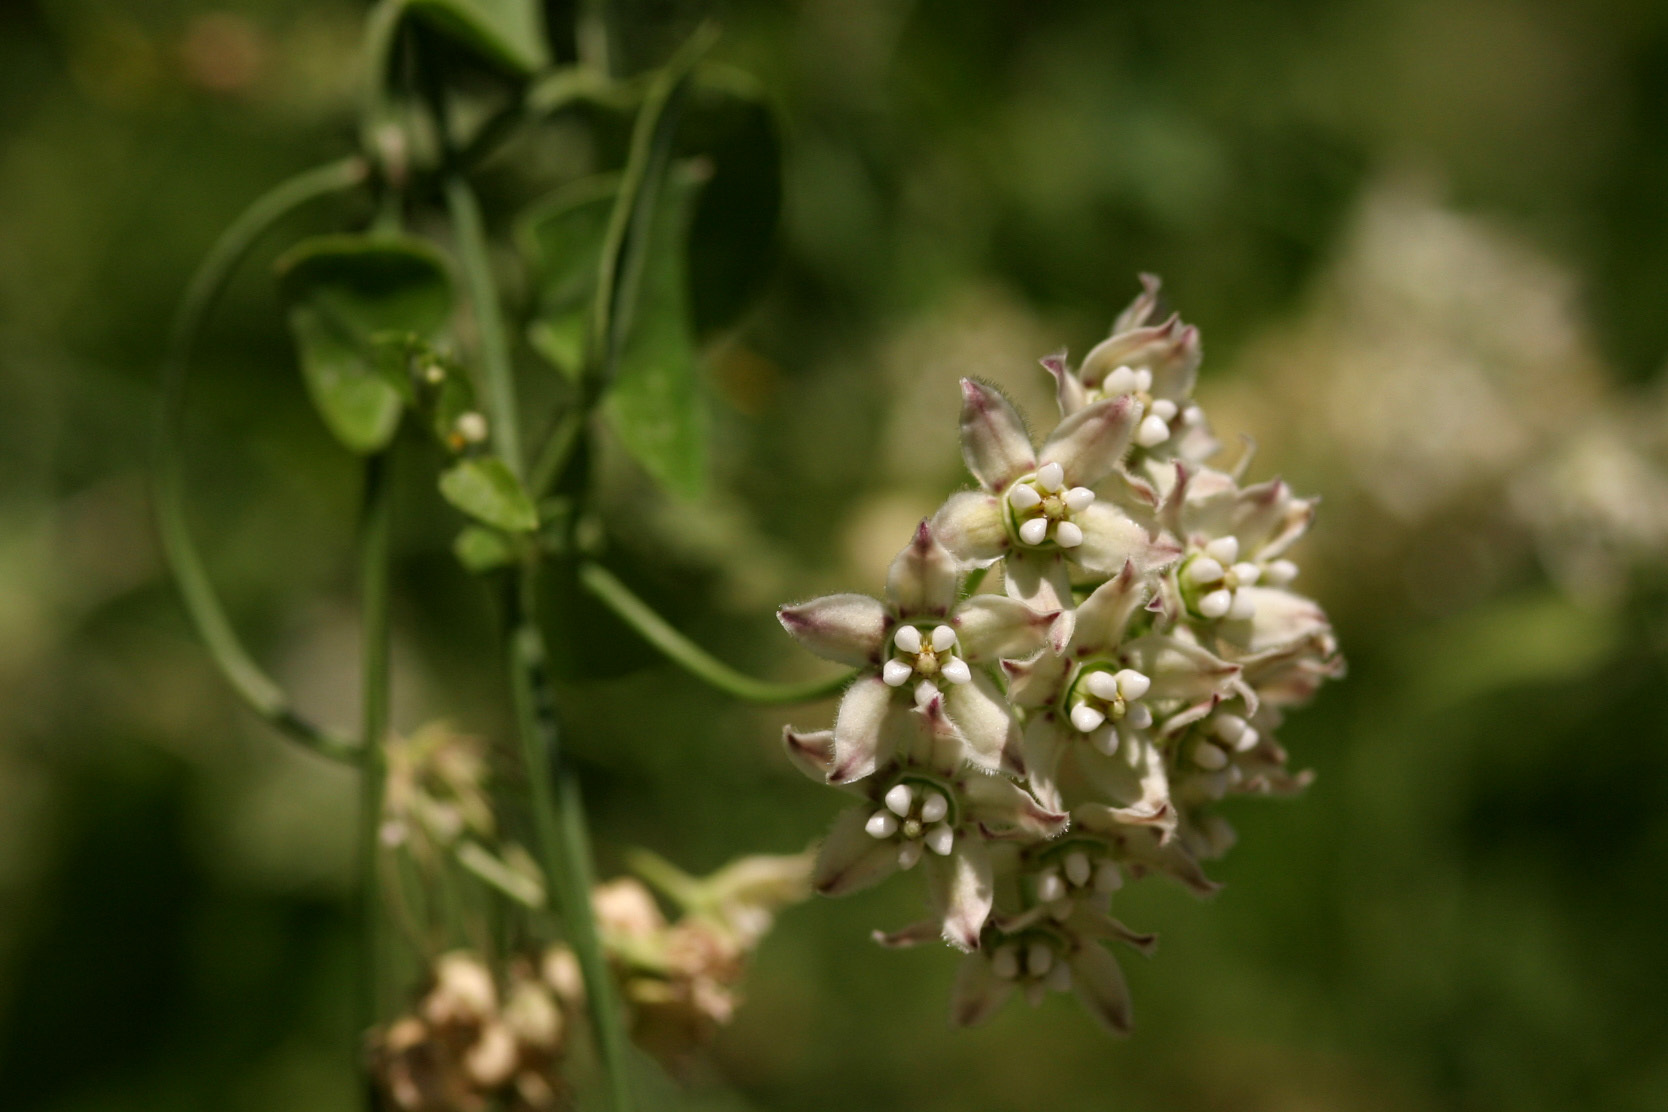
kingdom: Plantae
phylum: Tracheophyta
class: Magnoliopsida
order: Gentianales
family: Apocynaceae
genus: Funastrum
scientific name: Funastrum cynanchoides
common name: Climbing-milkweed
